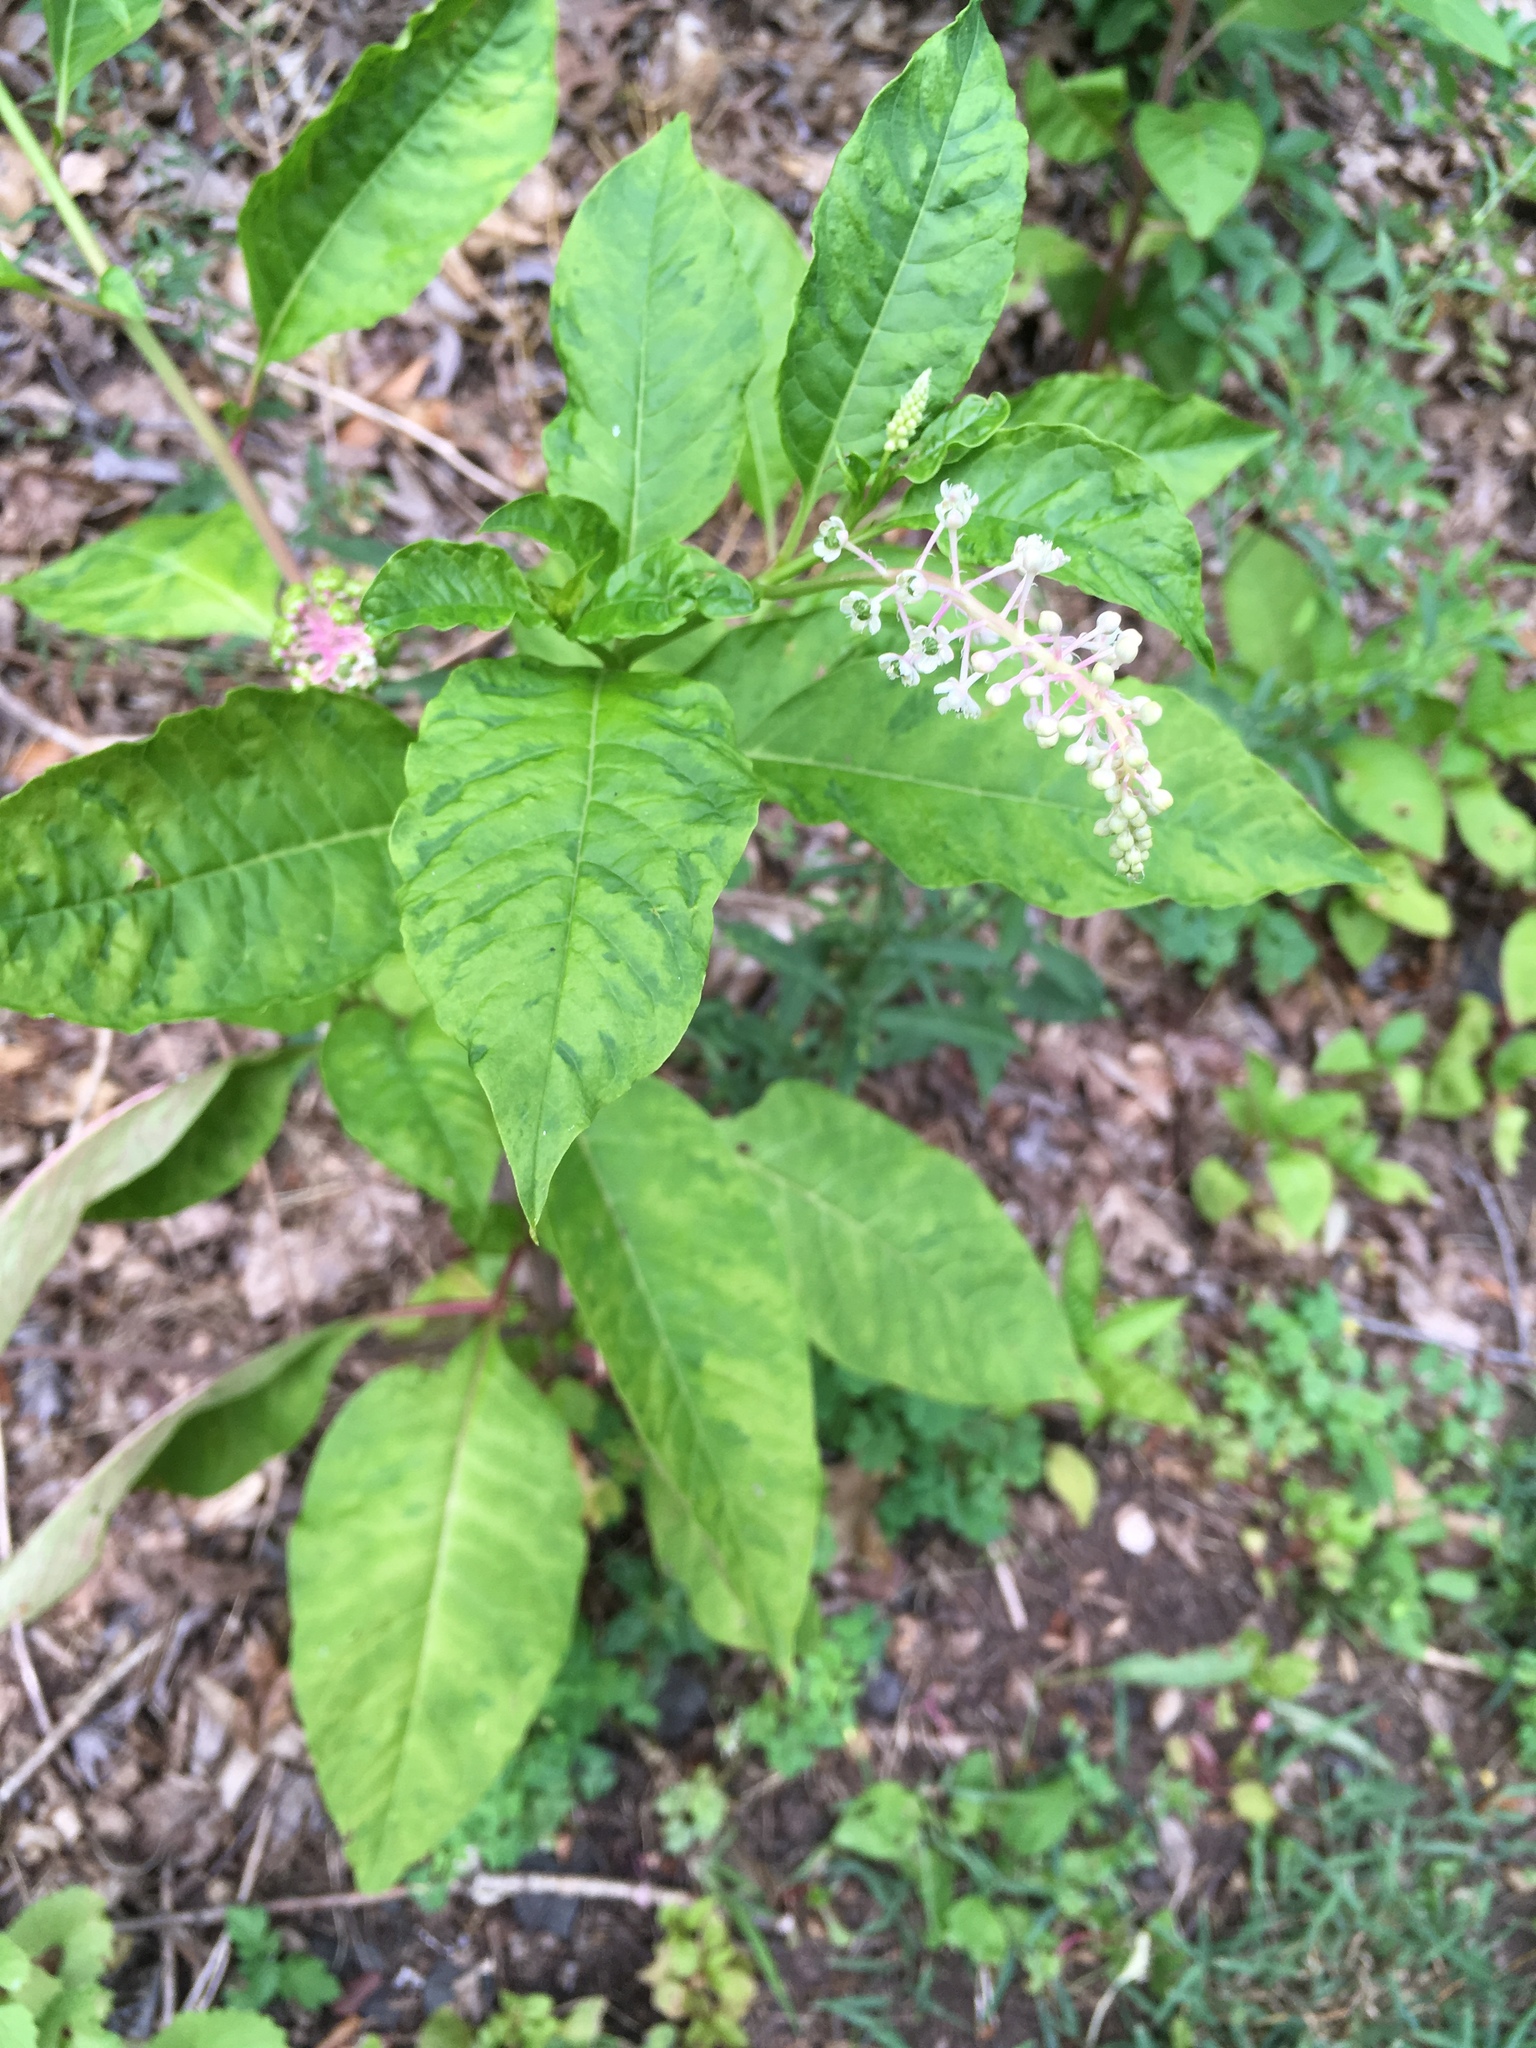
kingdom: Plantae
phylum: Tracheophyta
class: Magnoliopsida
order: Caryophyllales
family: Phytolaccaceae
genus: Phytolacca
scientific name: Phytolacca americana
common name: American pokeweed
